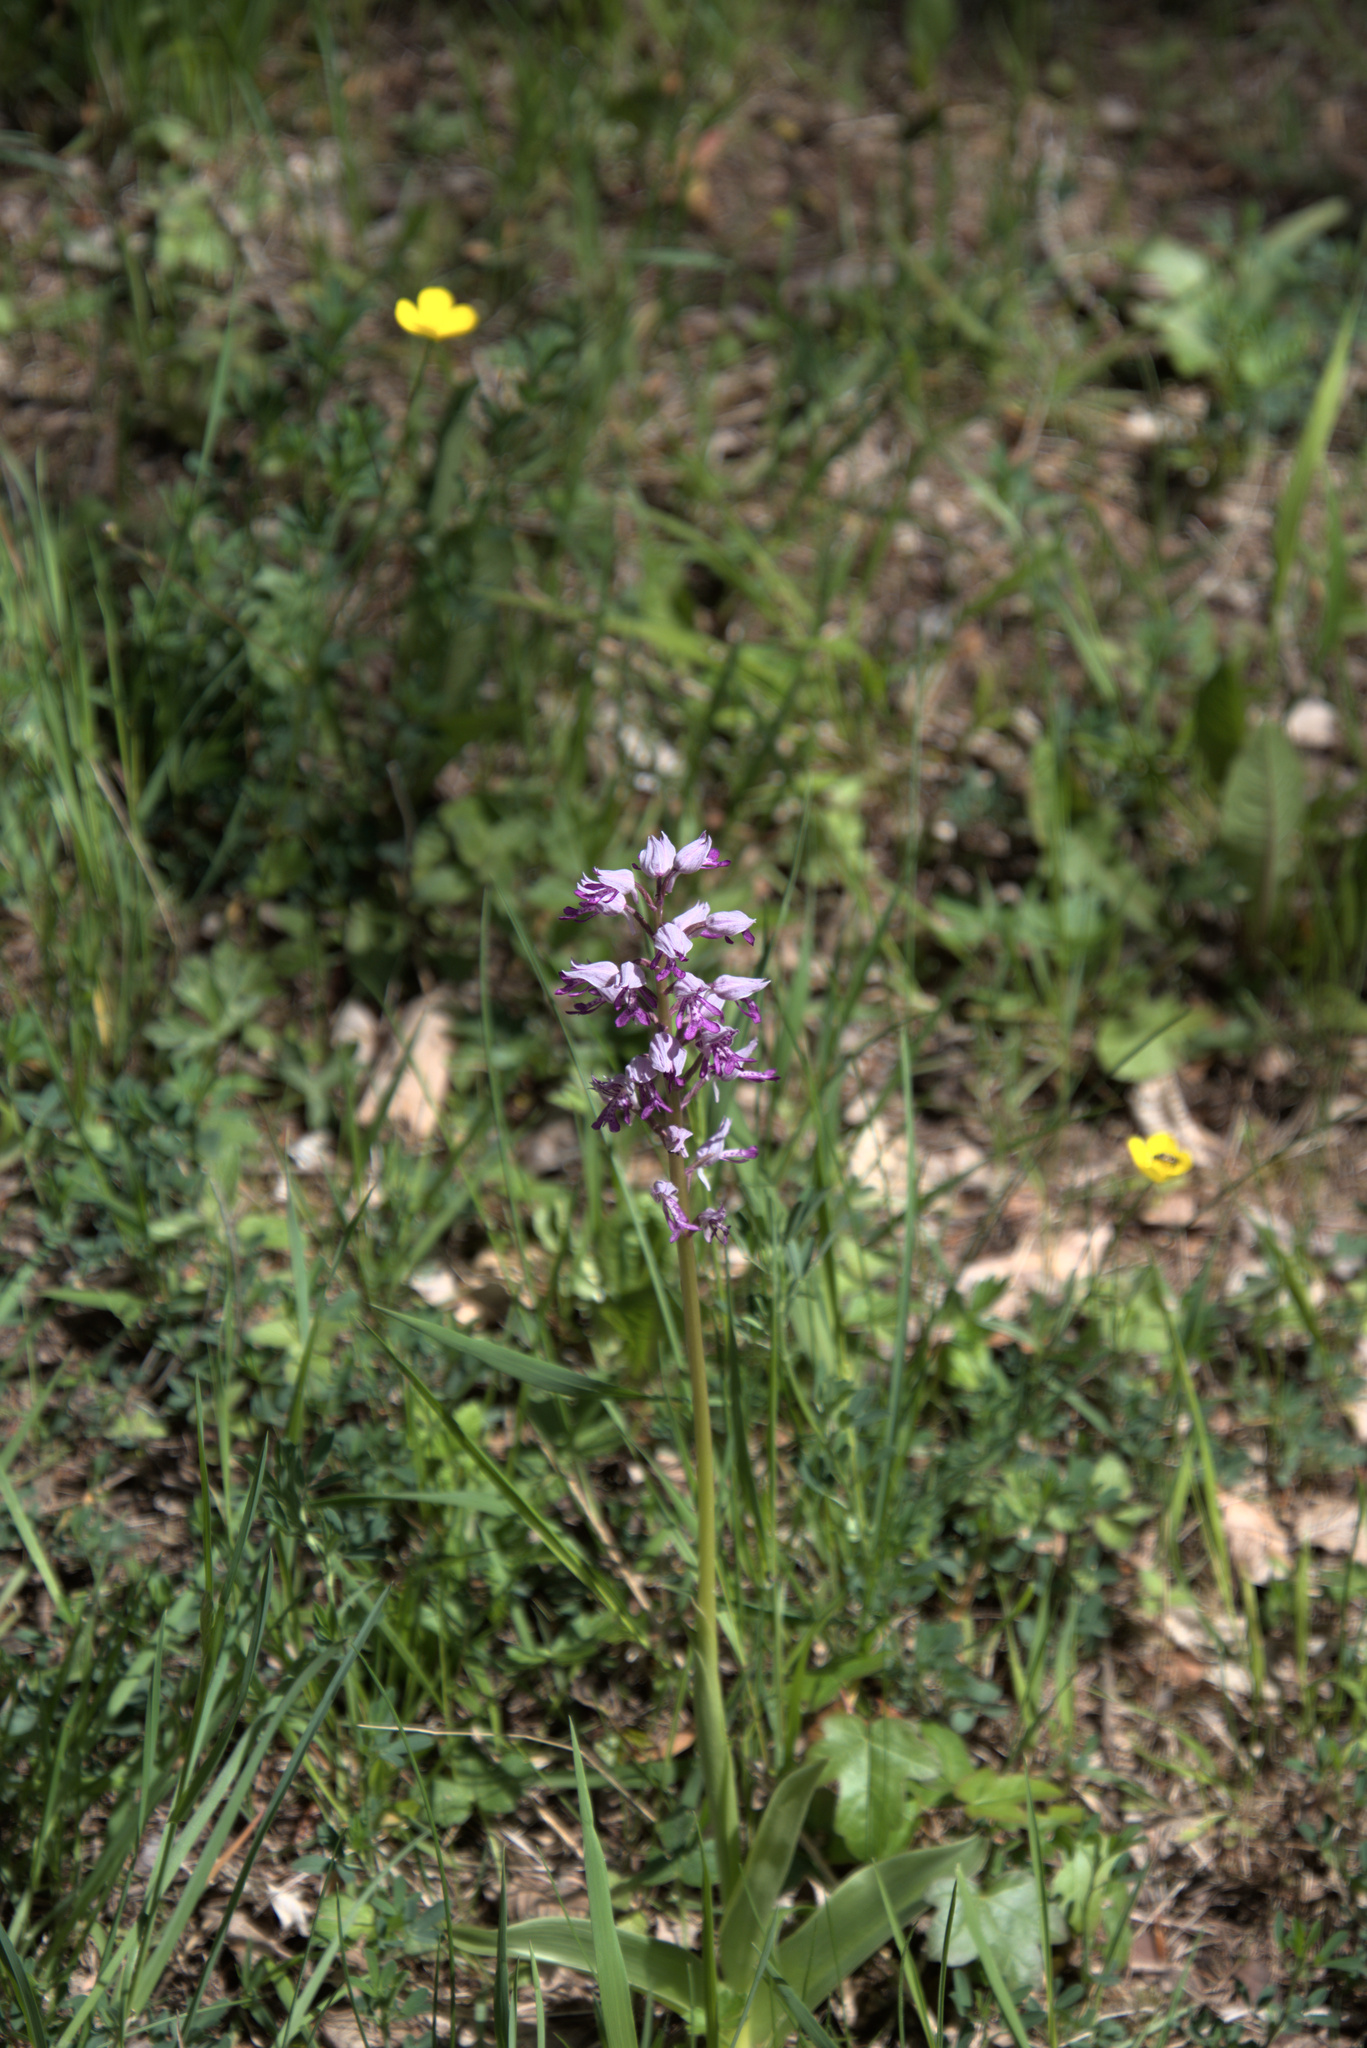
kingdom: Plantae
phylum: Tracheophyta
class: Liliopsida
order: Asparagales
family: Orchidaceae
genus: Orchis
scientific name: Orchis militaris
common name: Military orchid
